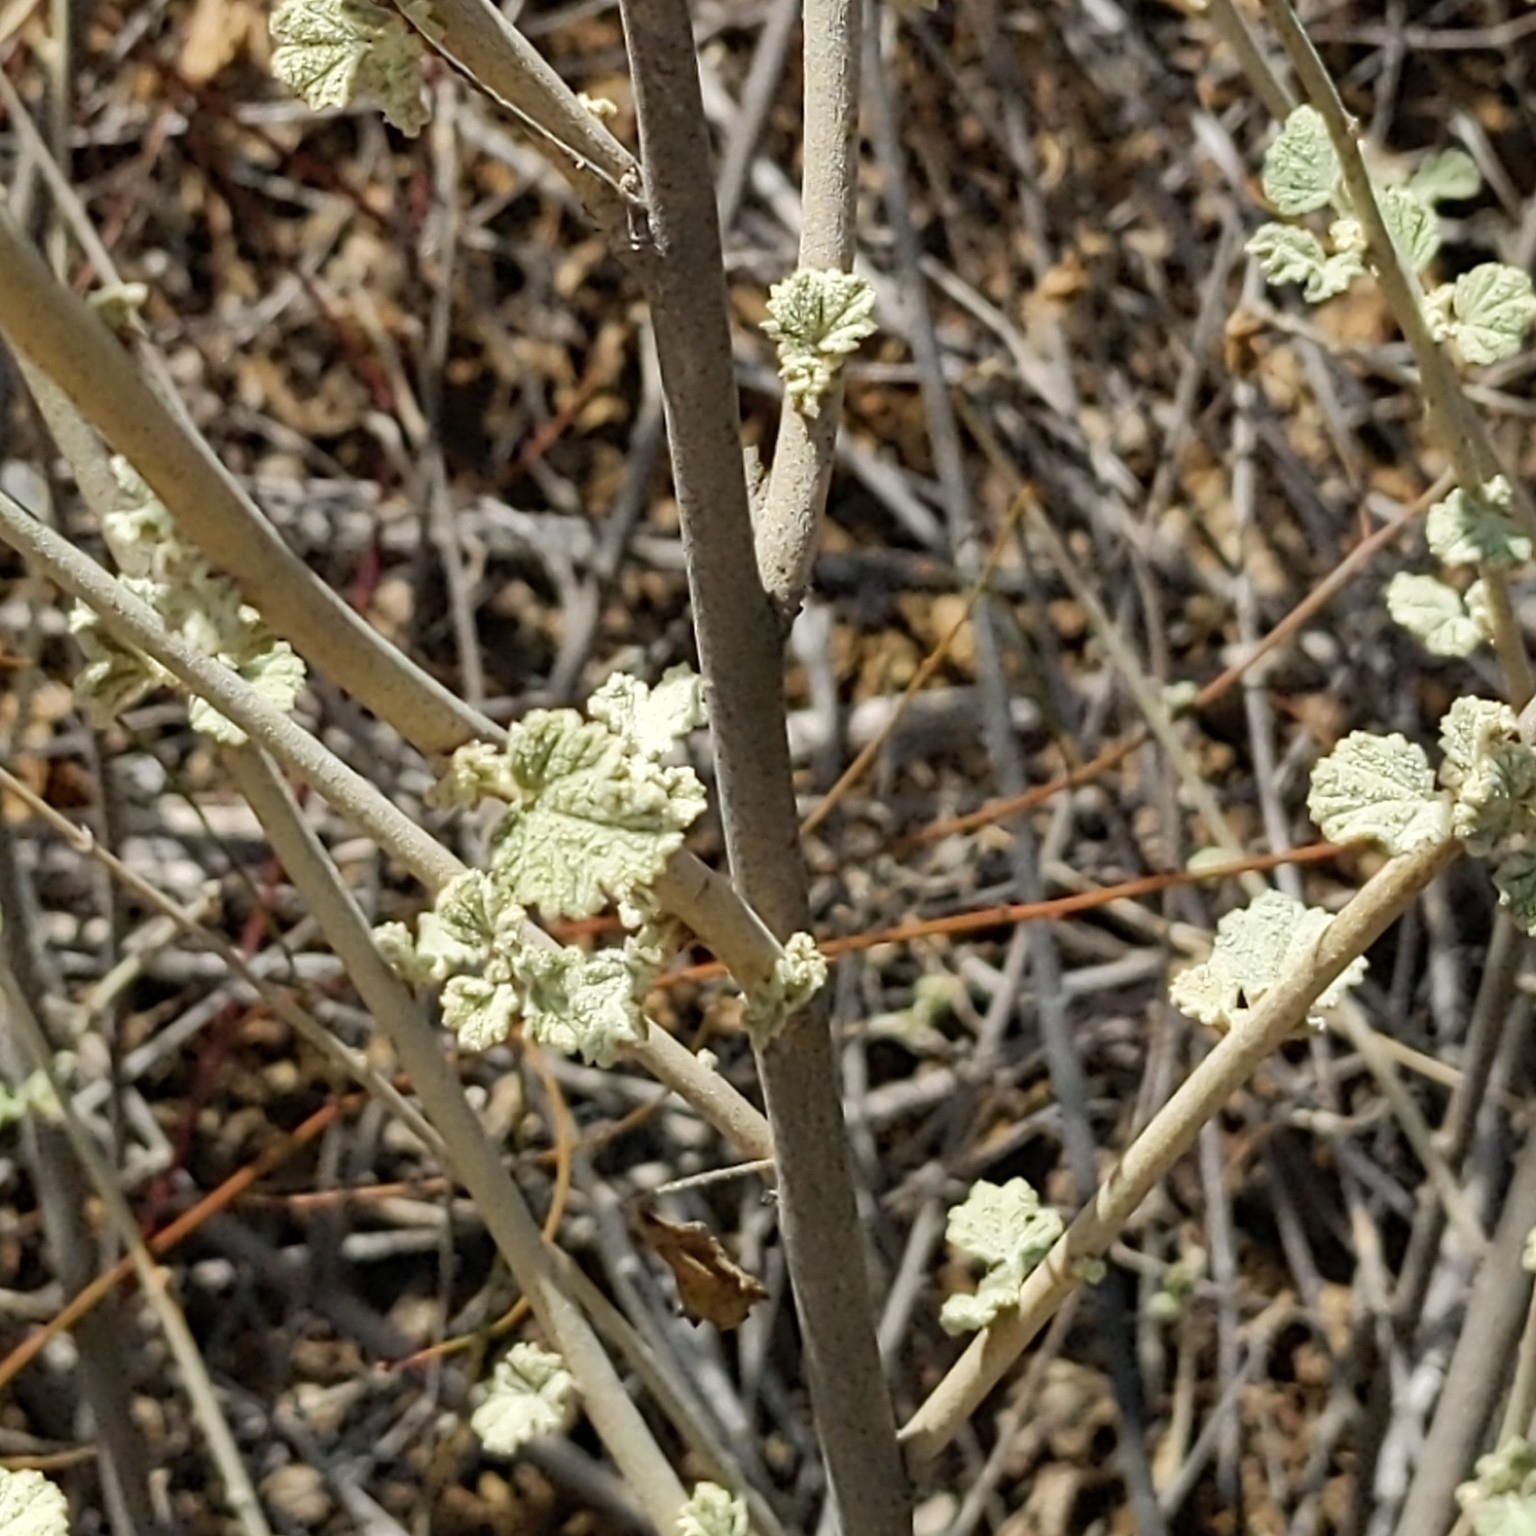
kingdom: Plantae
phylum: Tracheophyta
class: Magnoliopsida
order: Malvales
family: Malvaceae
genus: Malacothamnus
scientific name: Malacothamnus fasciculatus
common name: Sant cruz island bush-mallow
